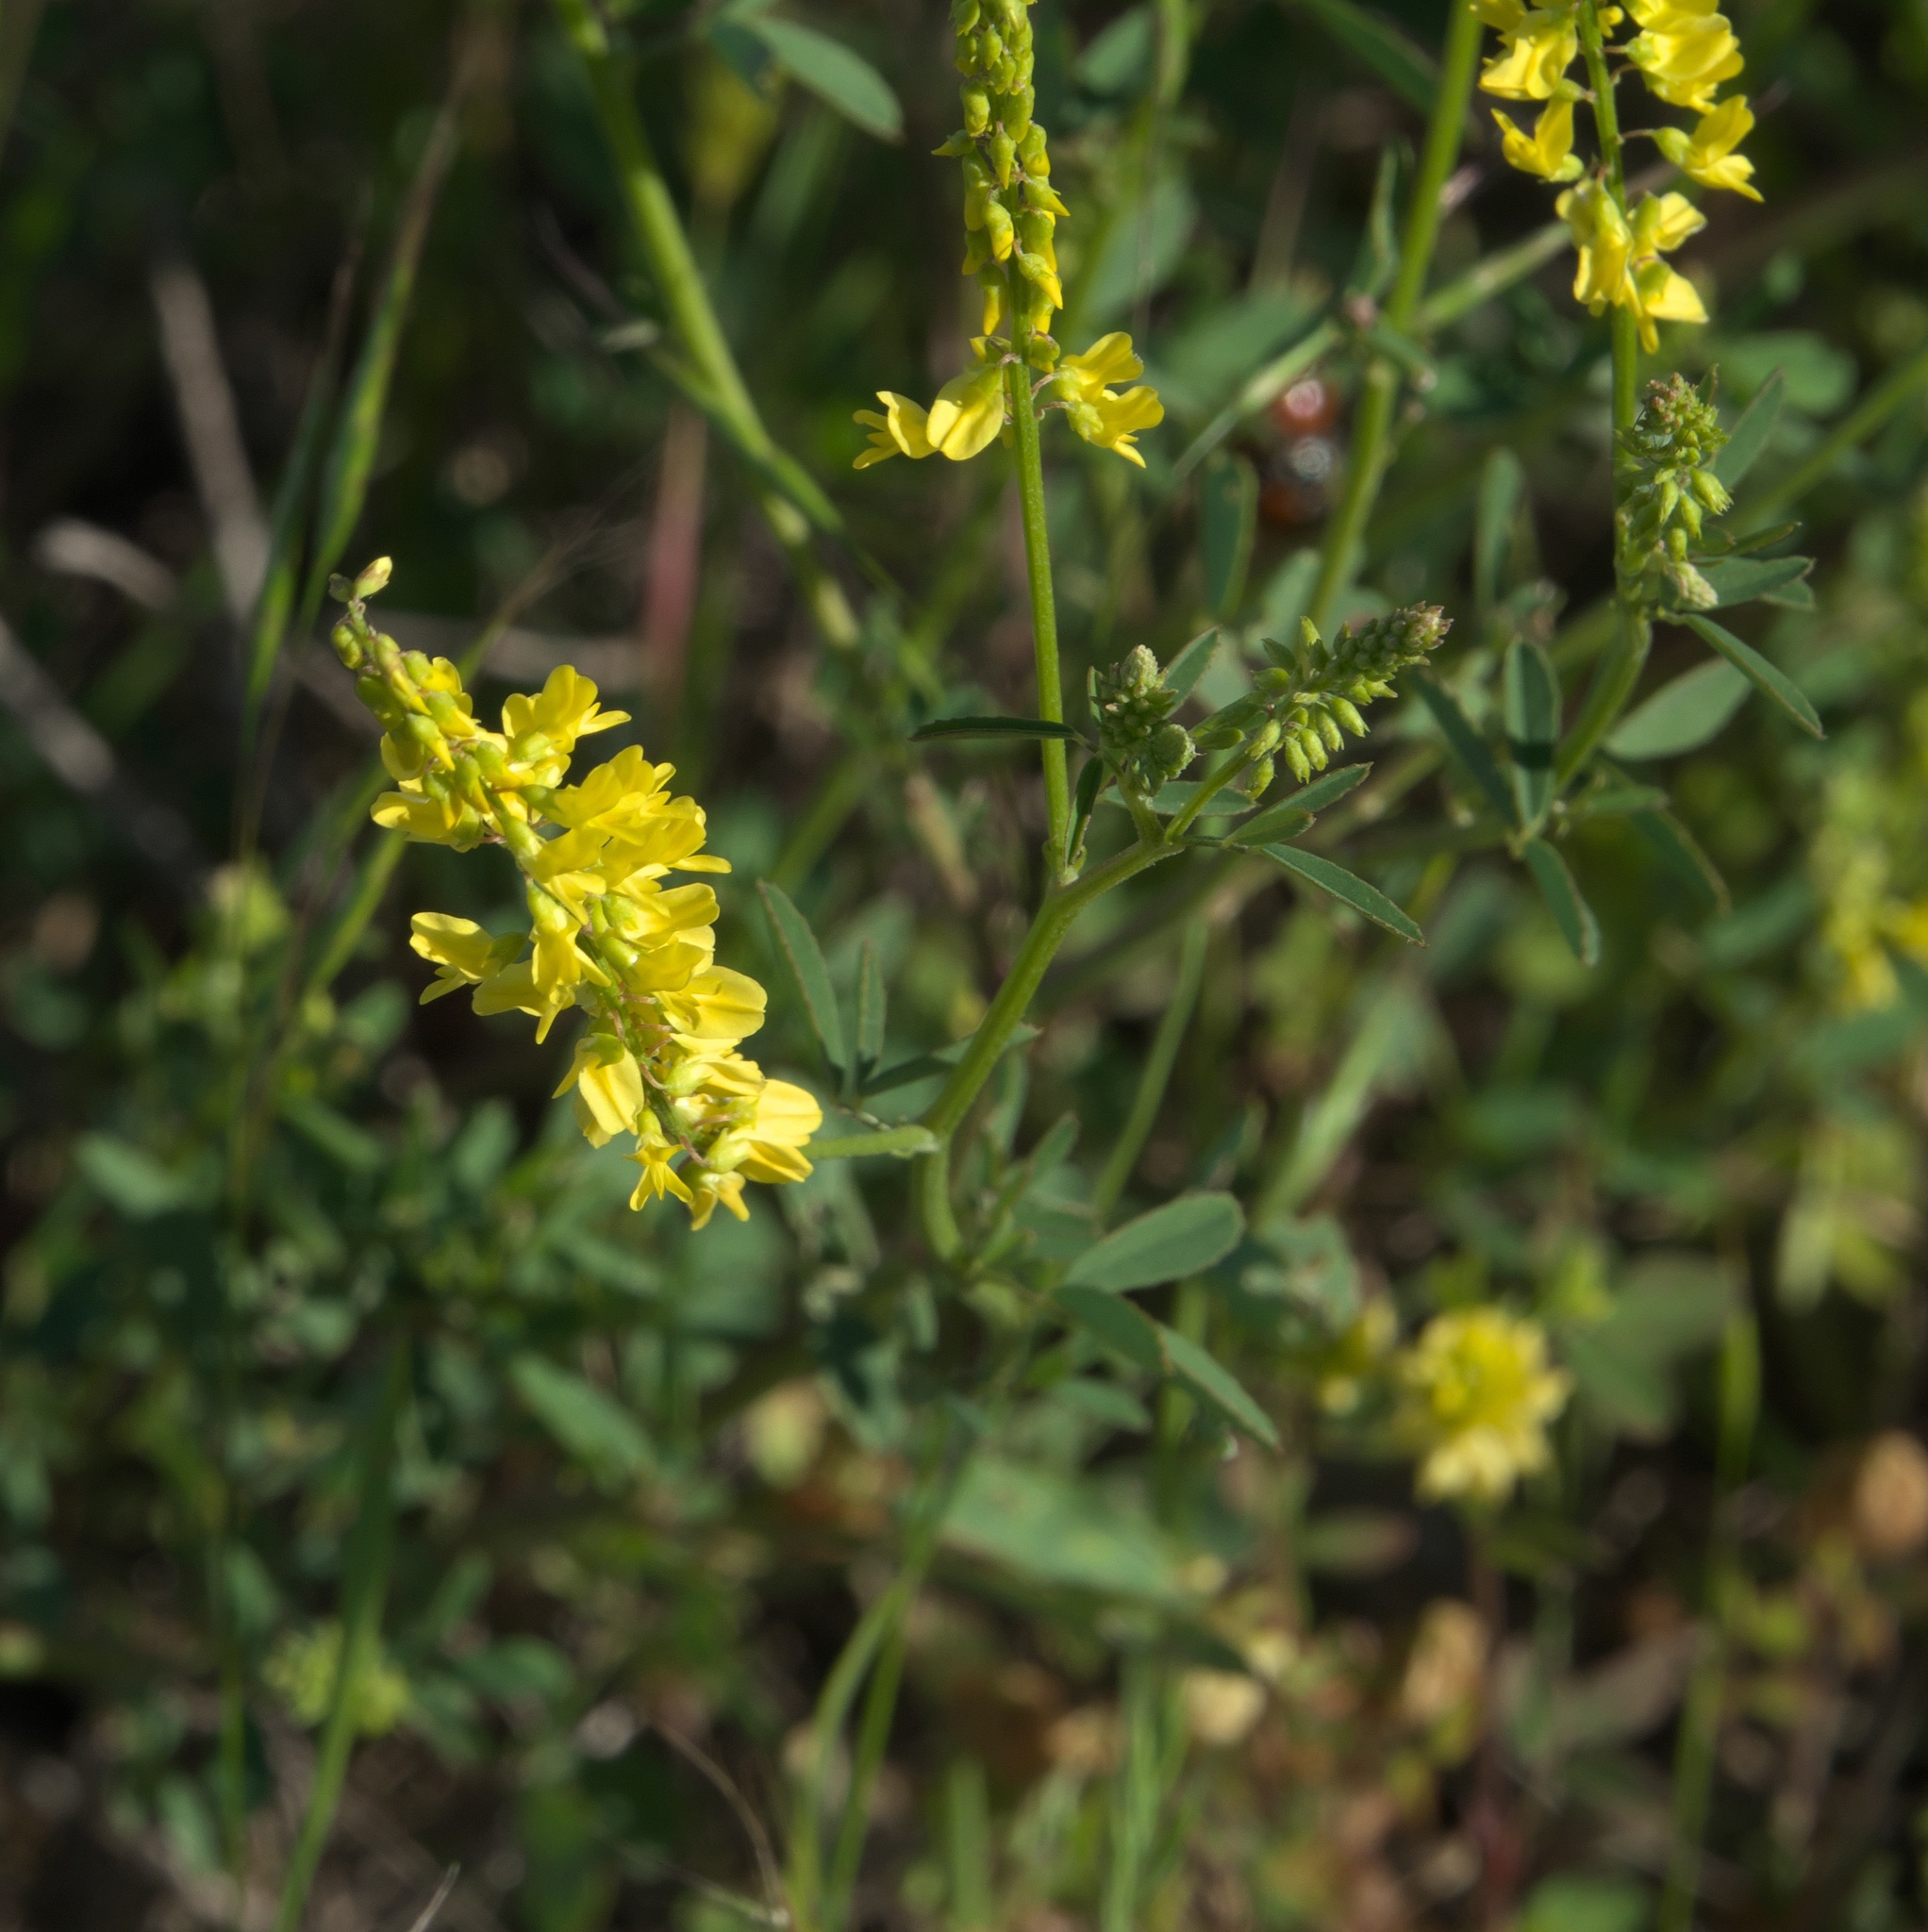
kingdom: Plantae
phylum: Tracheophyta
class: Magnoliopsida
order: Fabales
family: Fabaceae
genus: Melilotus
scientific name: Melilotus officinalis
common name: Sweetclover
